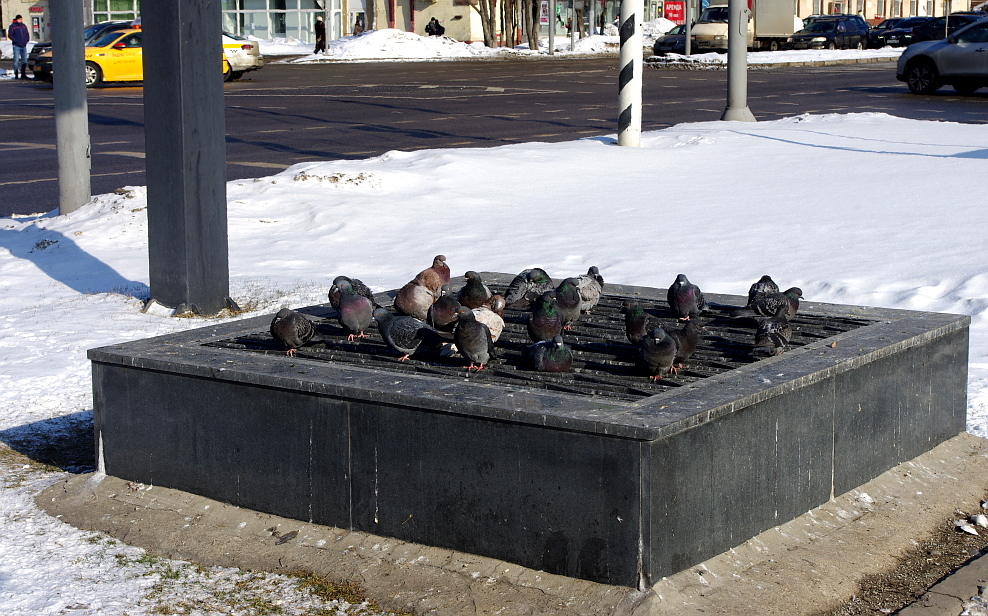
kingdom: Animalia
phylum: Chordata
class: Aves
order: Columbiformes
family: Columbidae
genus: Columba
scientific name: Columba livia
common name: Rock pigeon
